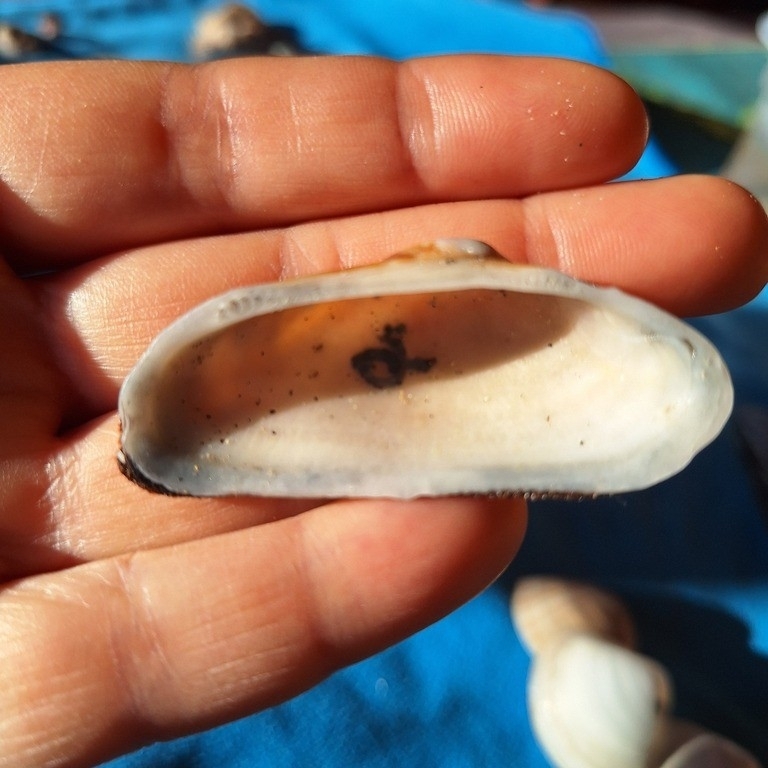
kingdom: Animalia
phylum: Mollusca
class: Bivalvia
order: Arcida
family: Arcidae
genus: Barbatia
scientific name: Barbatia barbata
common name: Bearded ark
